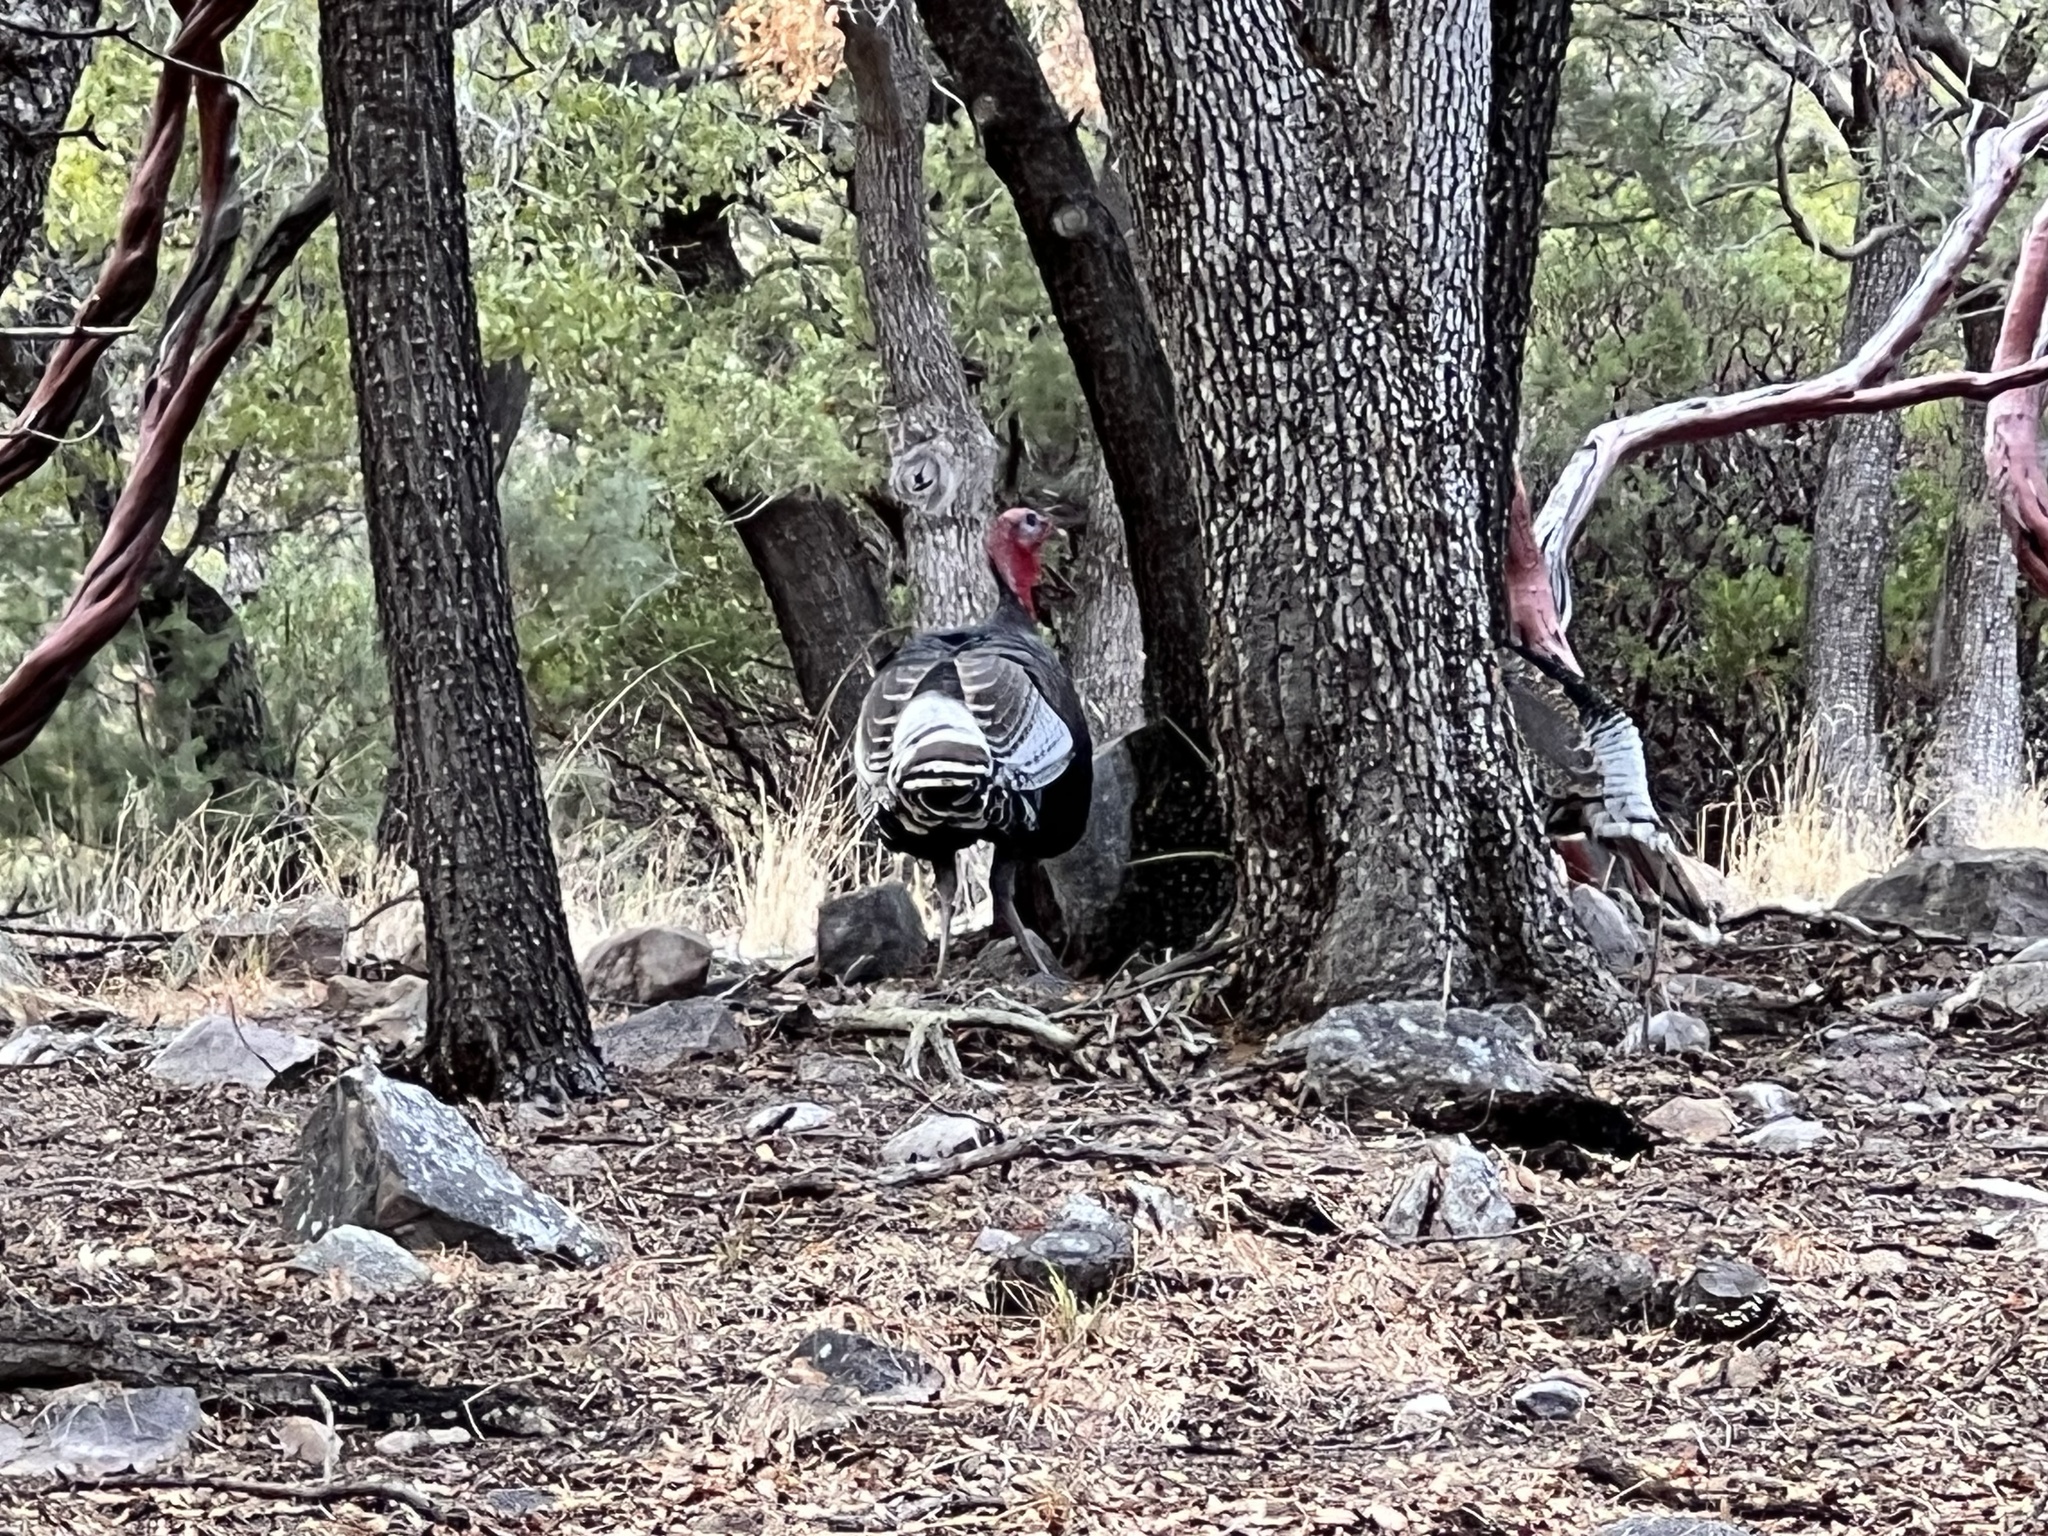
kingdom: Animalia
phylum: Chordata
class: Aves
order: Galliformes
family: Phasianidae
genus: Meleagris
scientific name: Meleagris gallopavo
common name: Wild turkey
